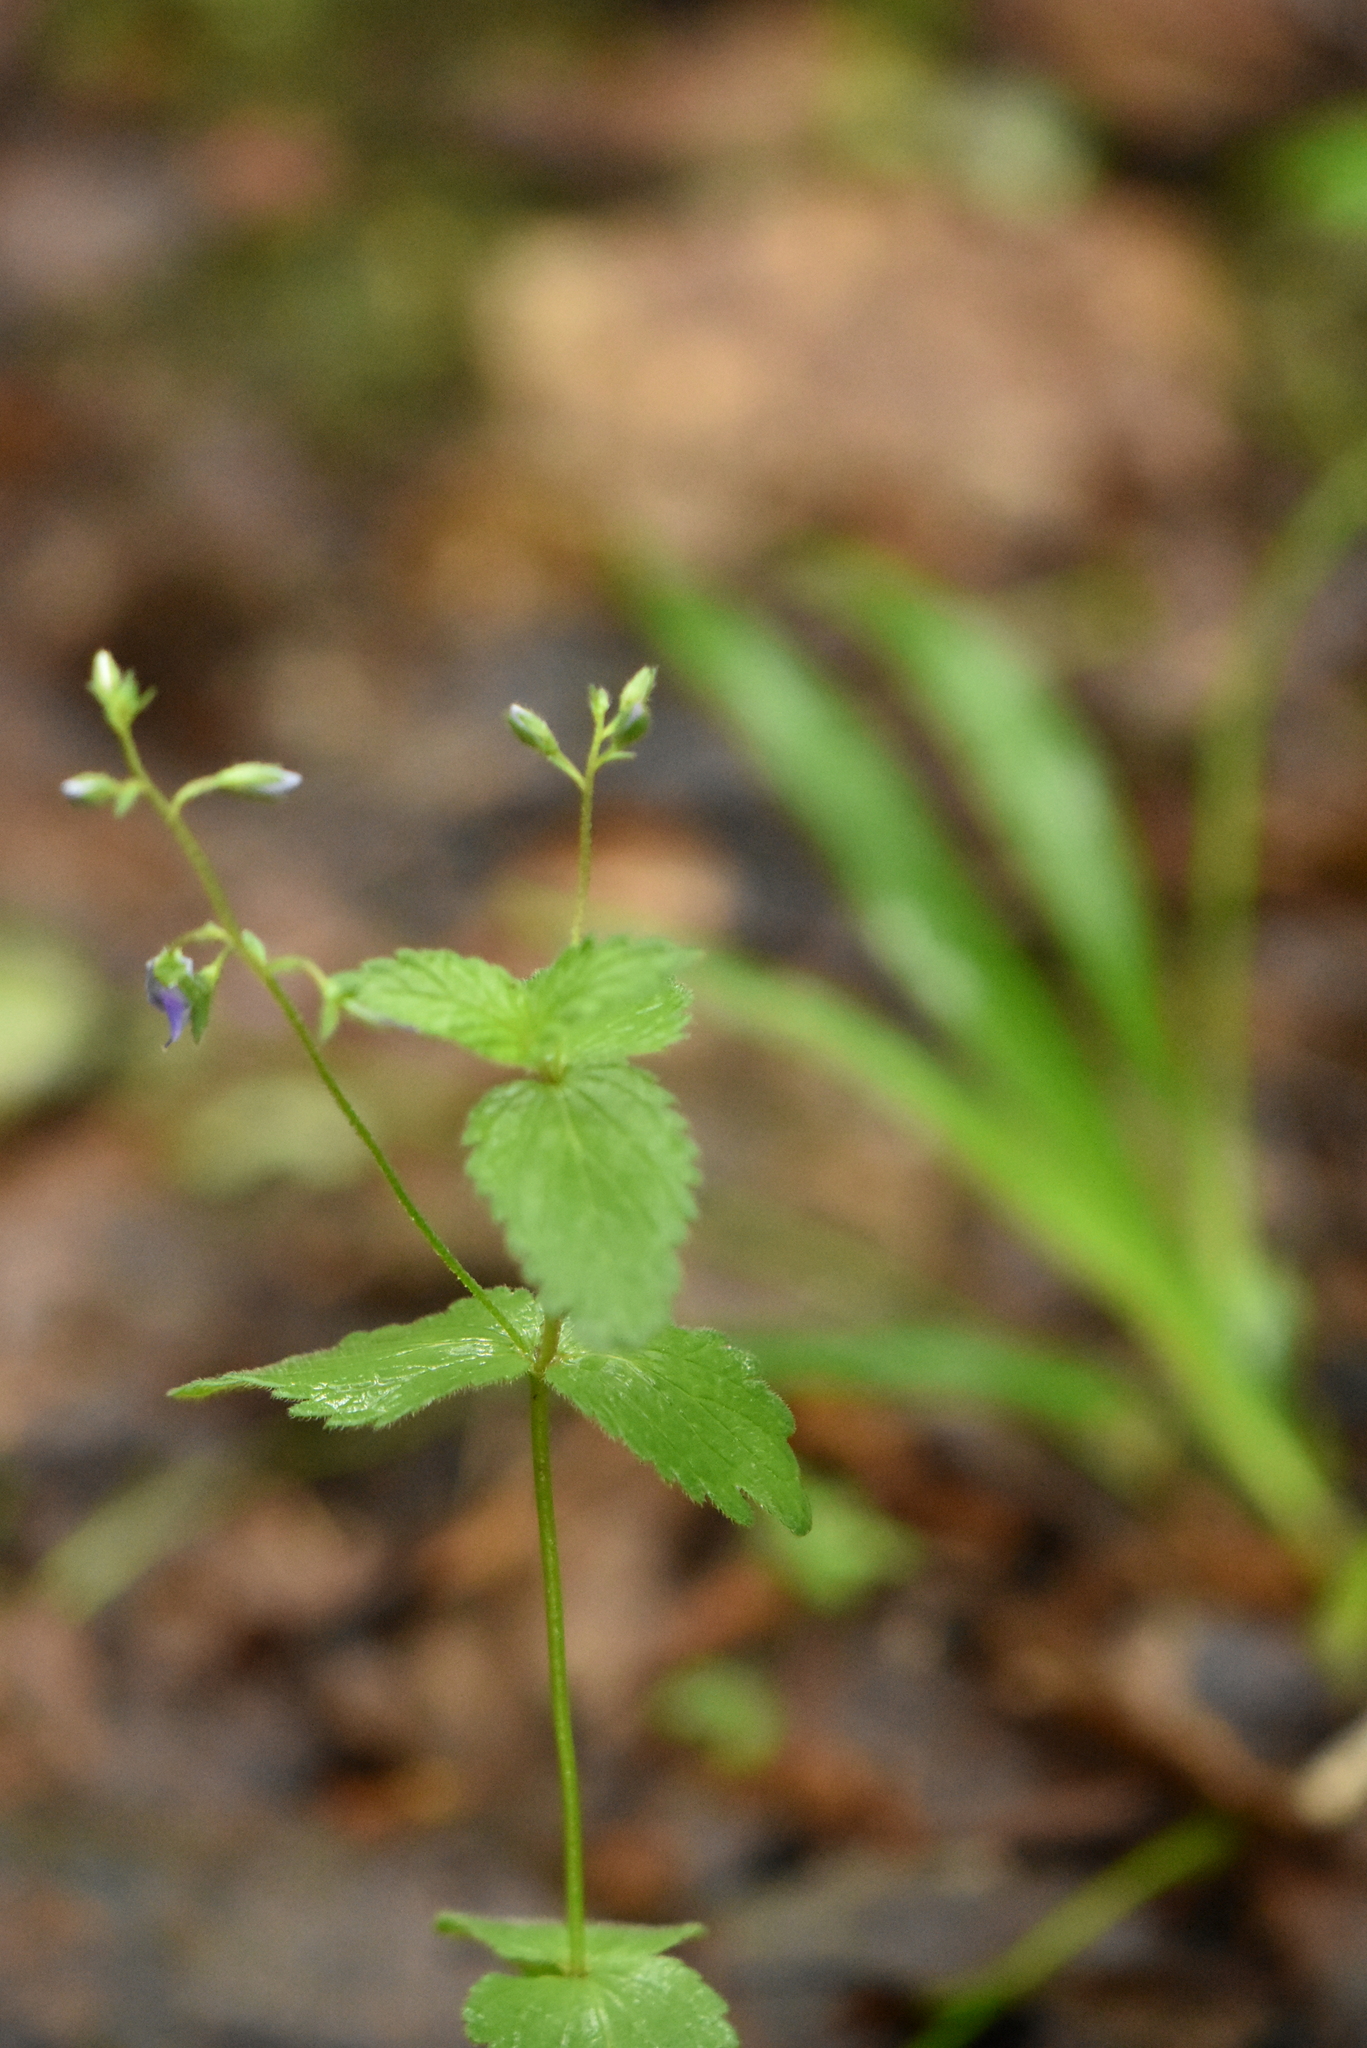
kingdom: Plantae
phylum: Tracheophyta
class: Magnoliopsida
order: Lamiales
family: Plantaginaceae
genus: Veronica
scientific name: Veronica chamaedrys
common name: Germander speedwell
